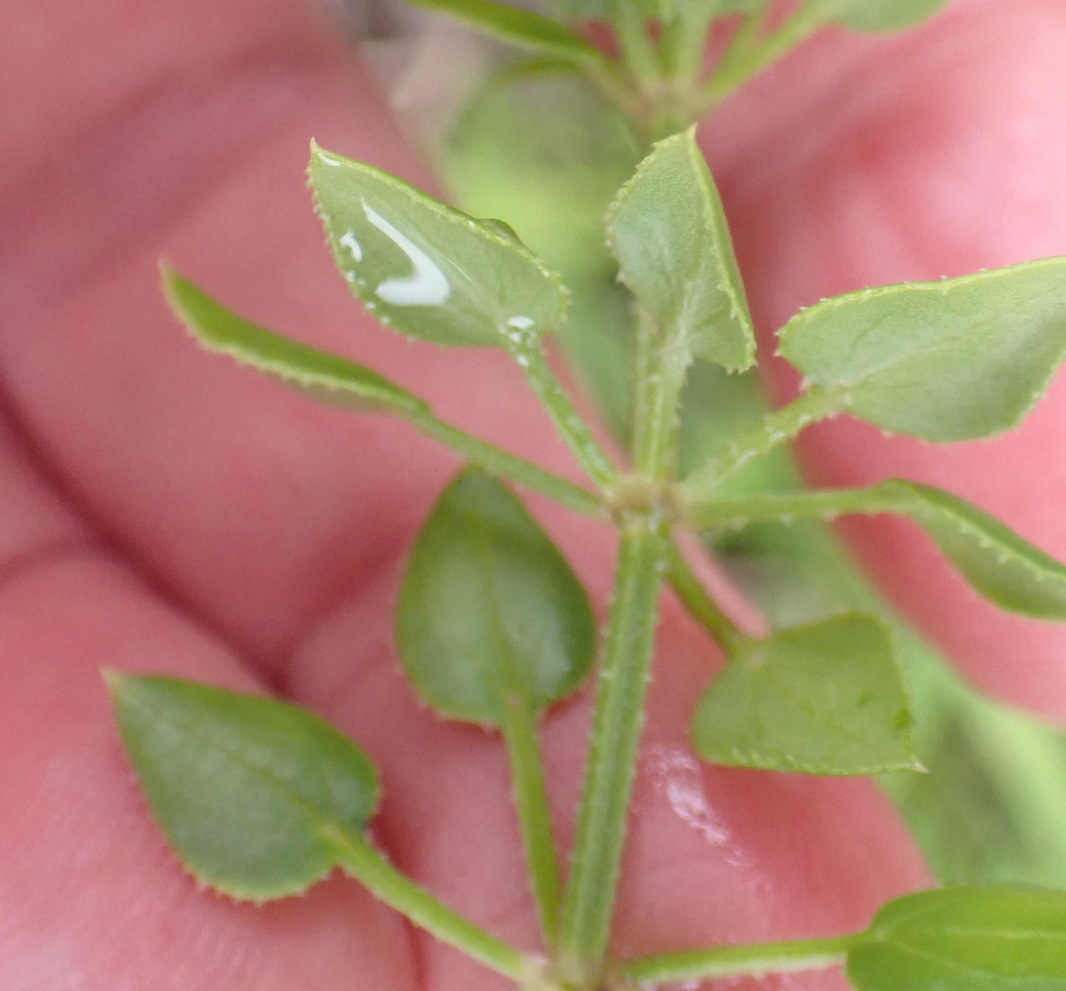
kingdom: Plantae
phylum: Tracheophyta
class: Magnoliopsida
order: Gentianales
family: Rubiaceae
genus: Rubia
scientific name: Rubia petiolaris
